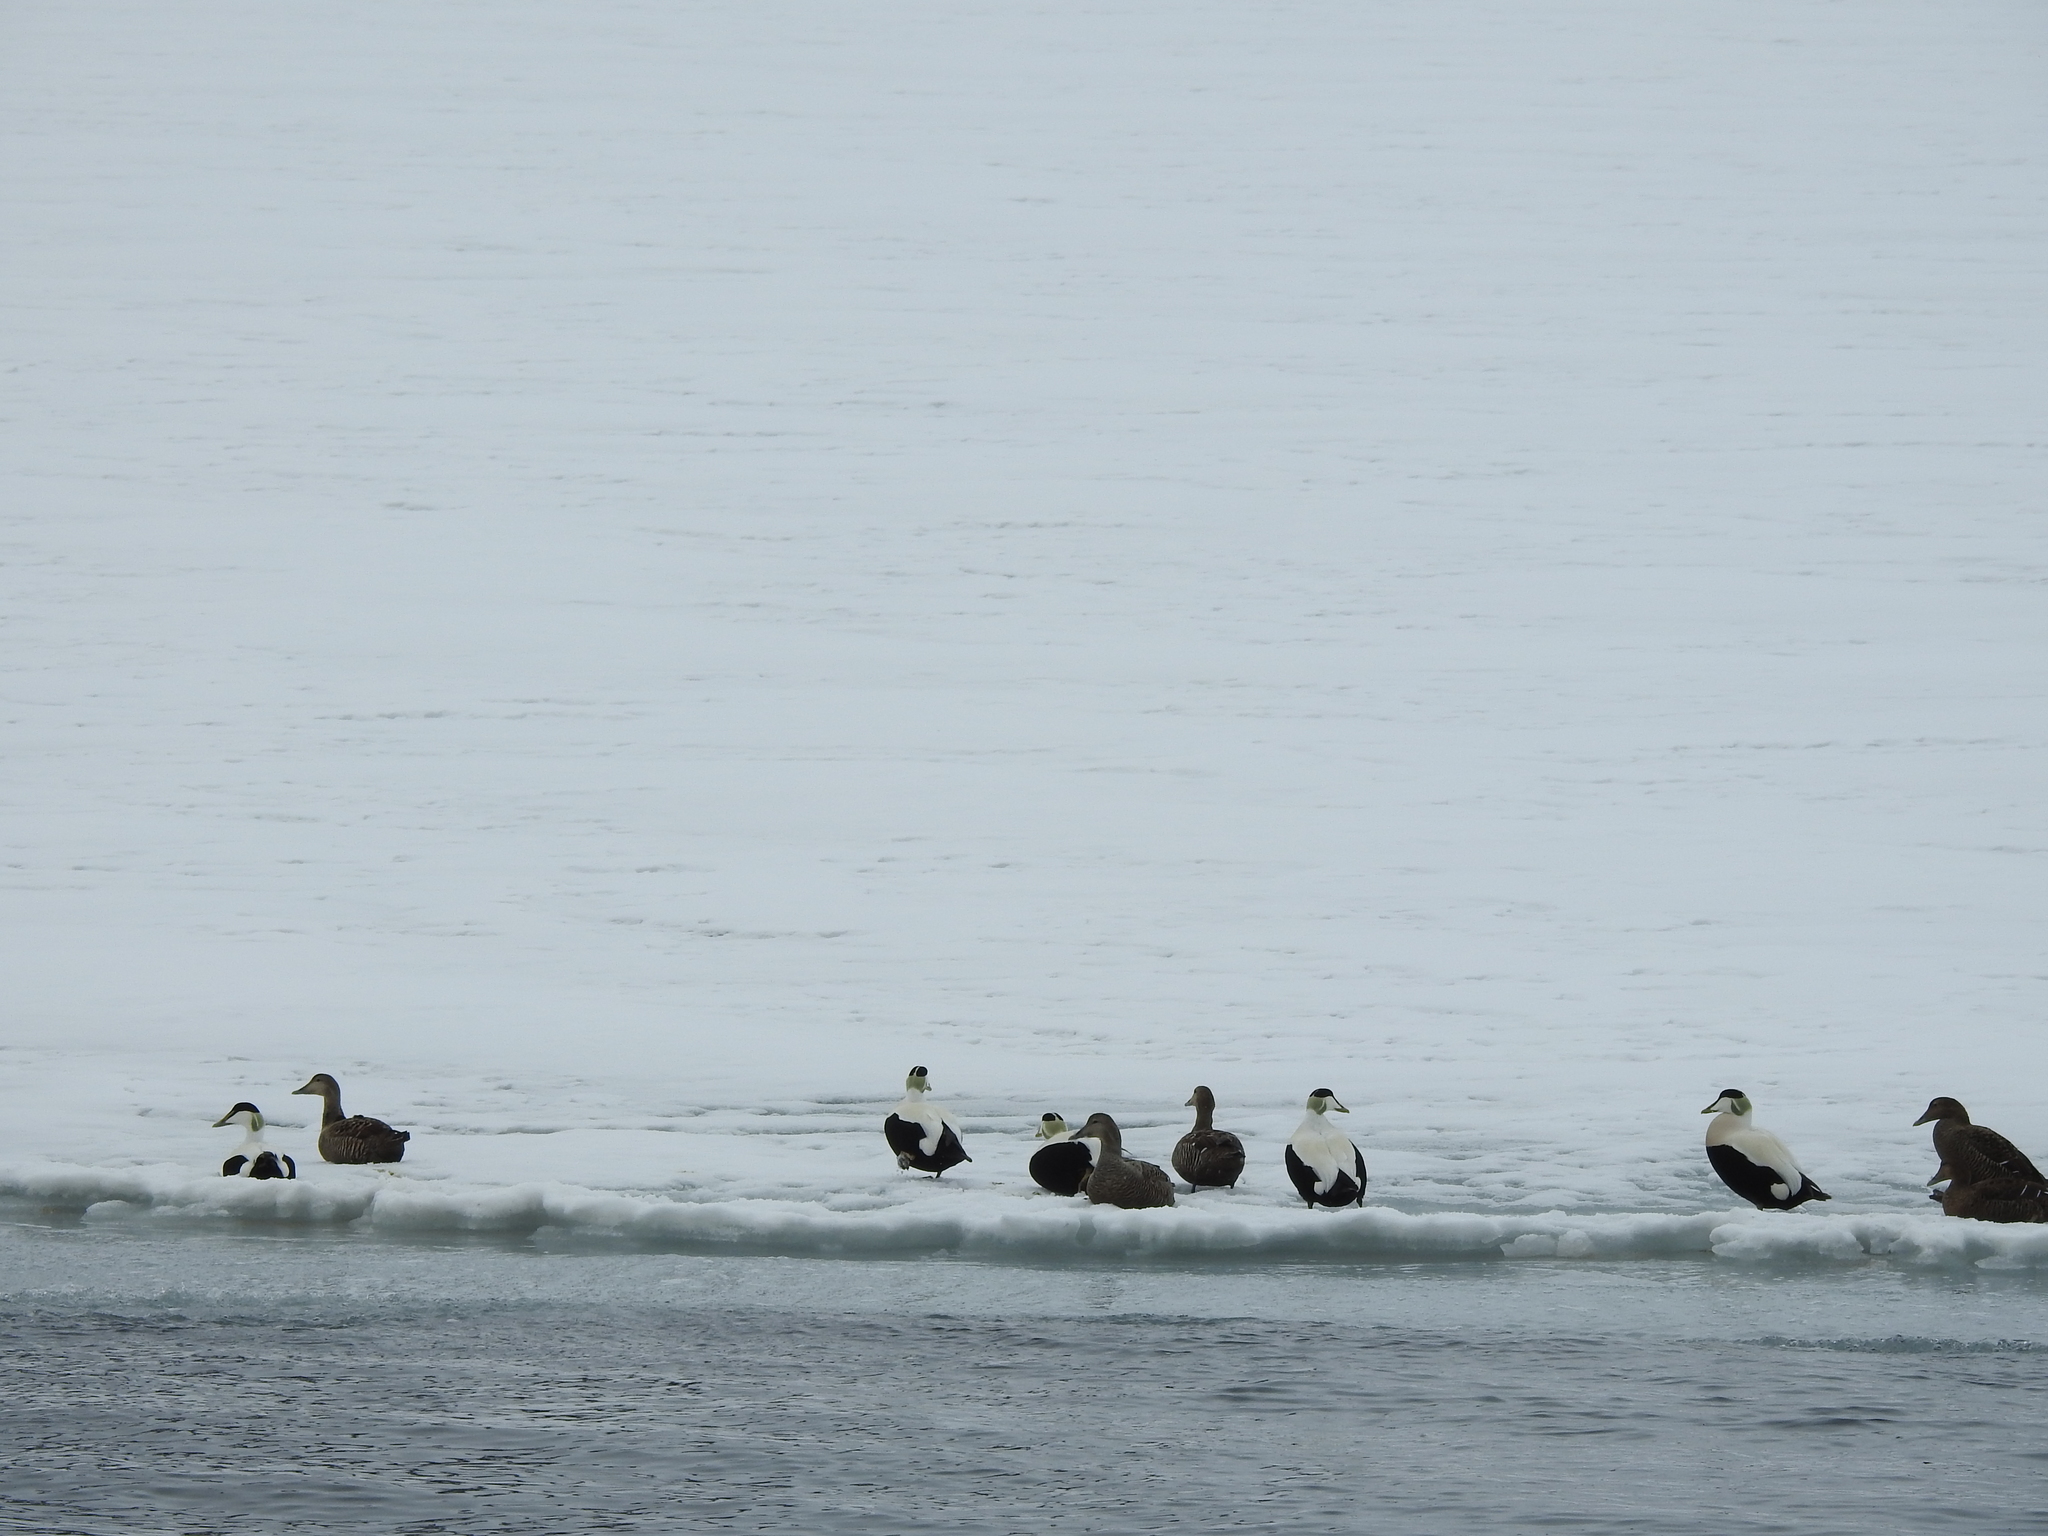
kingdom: Animalia
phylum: Chordata
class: Aves
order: Anseriformes
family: Anatidae
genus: Somateria
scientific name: Somateria mollissima
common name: Common eider
